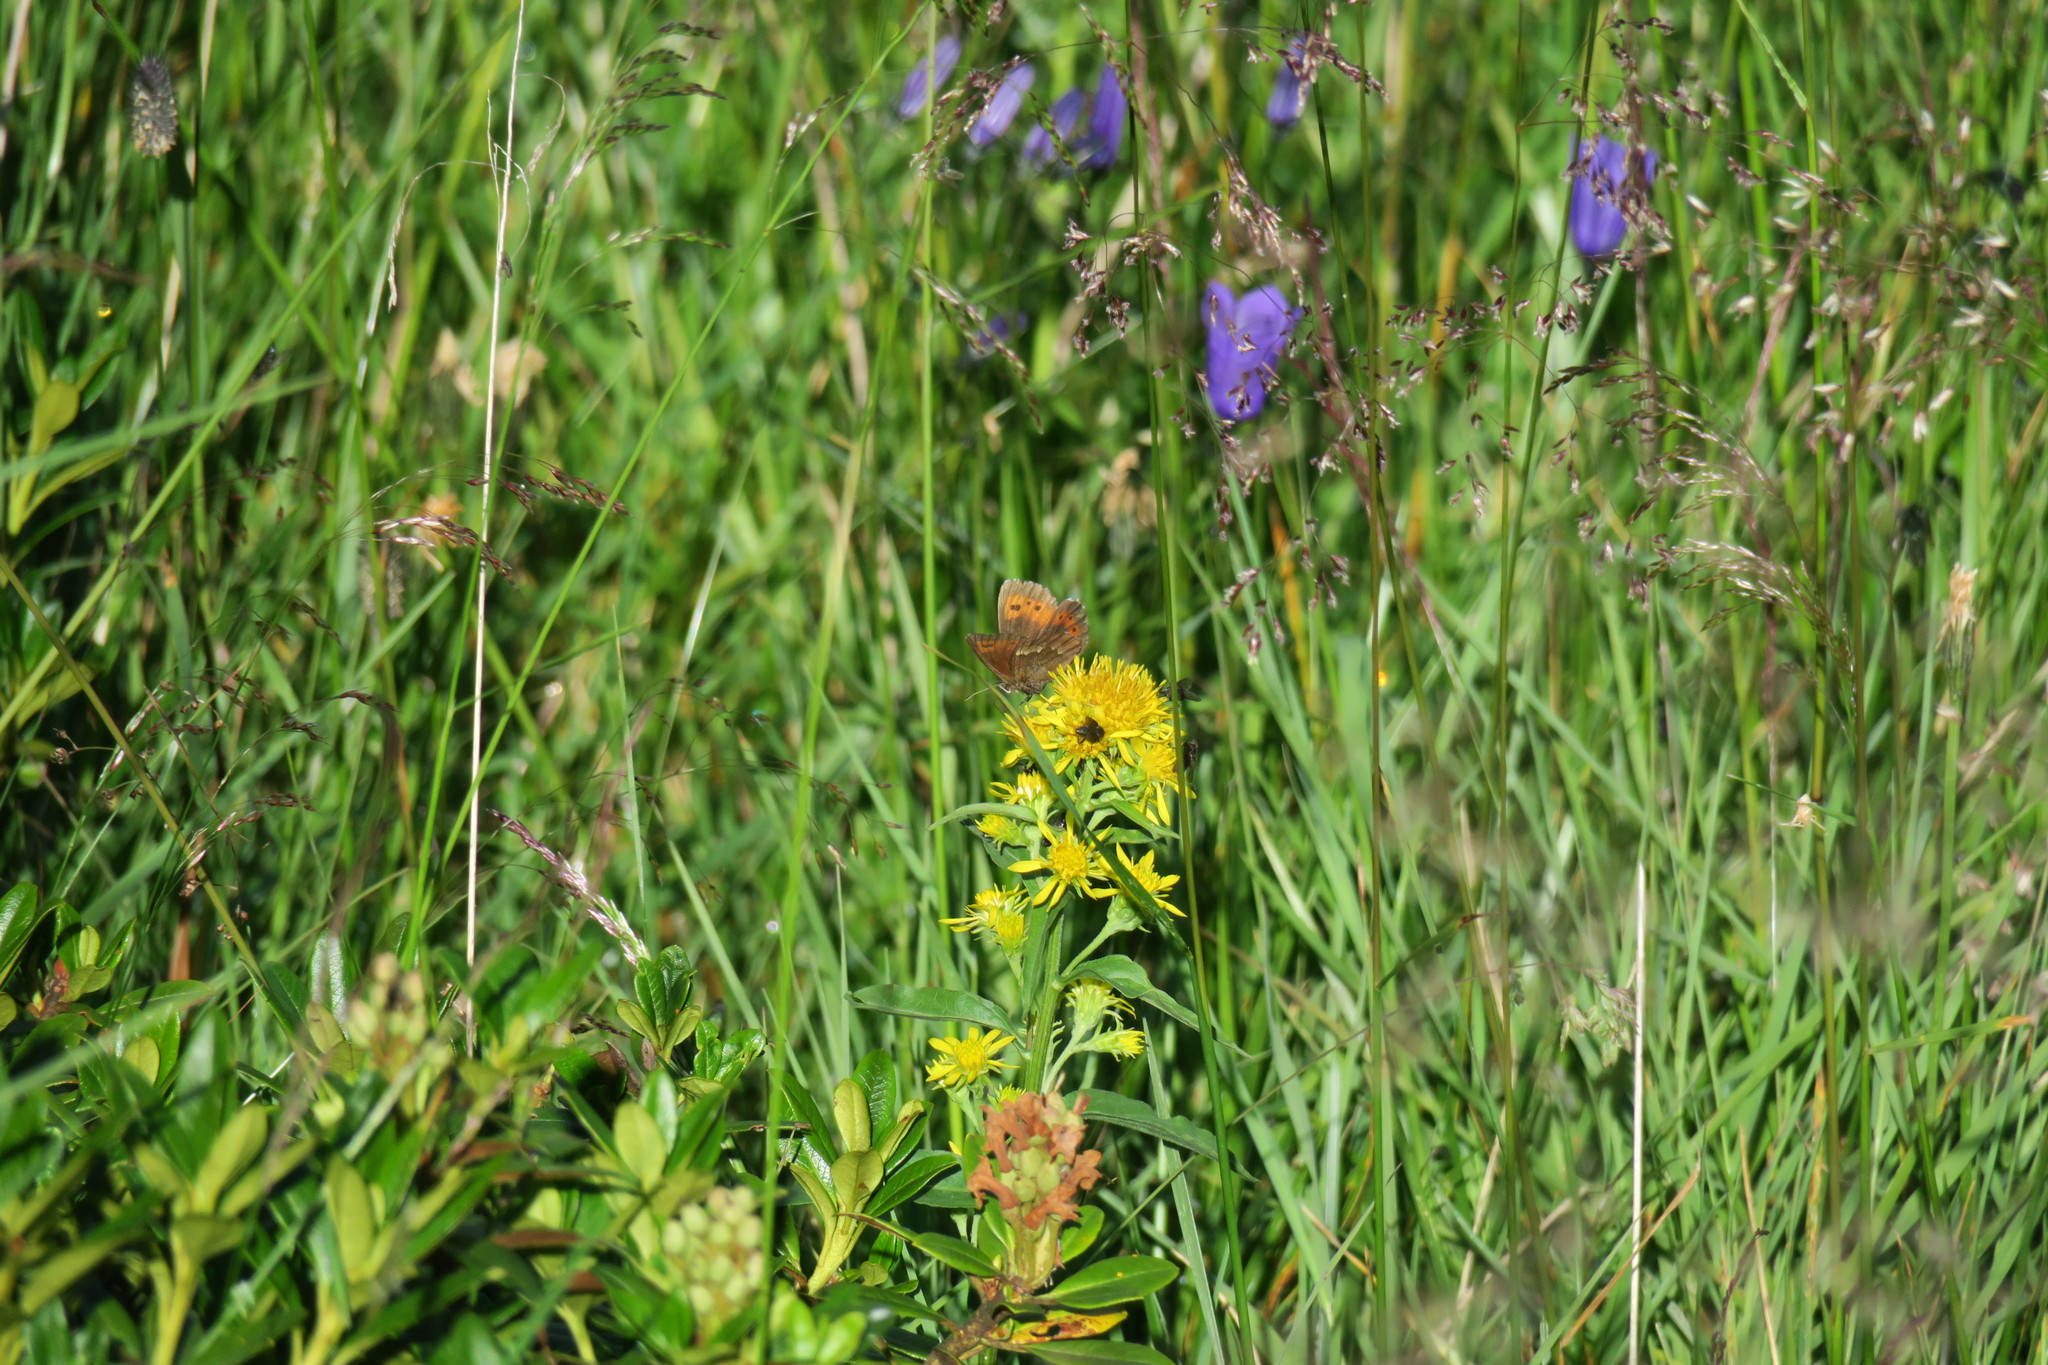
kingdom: Animalia
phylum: Arthropoda
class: Insecta
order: Lepidoptera
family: Nymphalidae
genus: Erebia
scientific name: Erebia euryale
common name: Large ringlet
